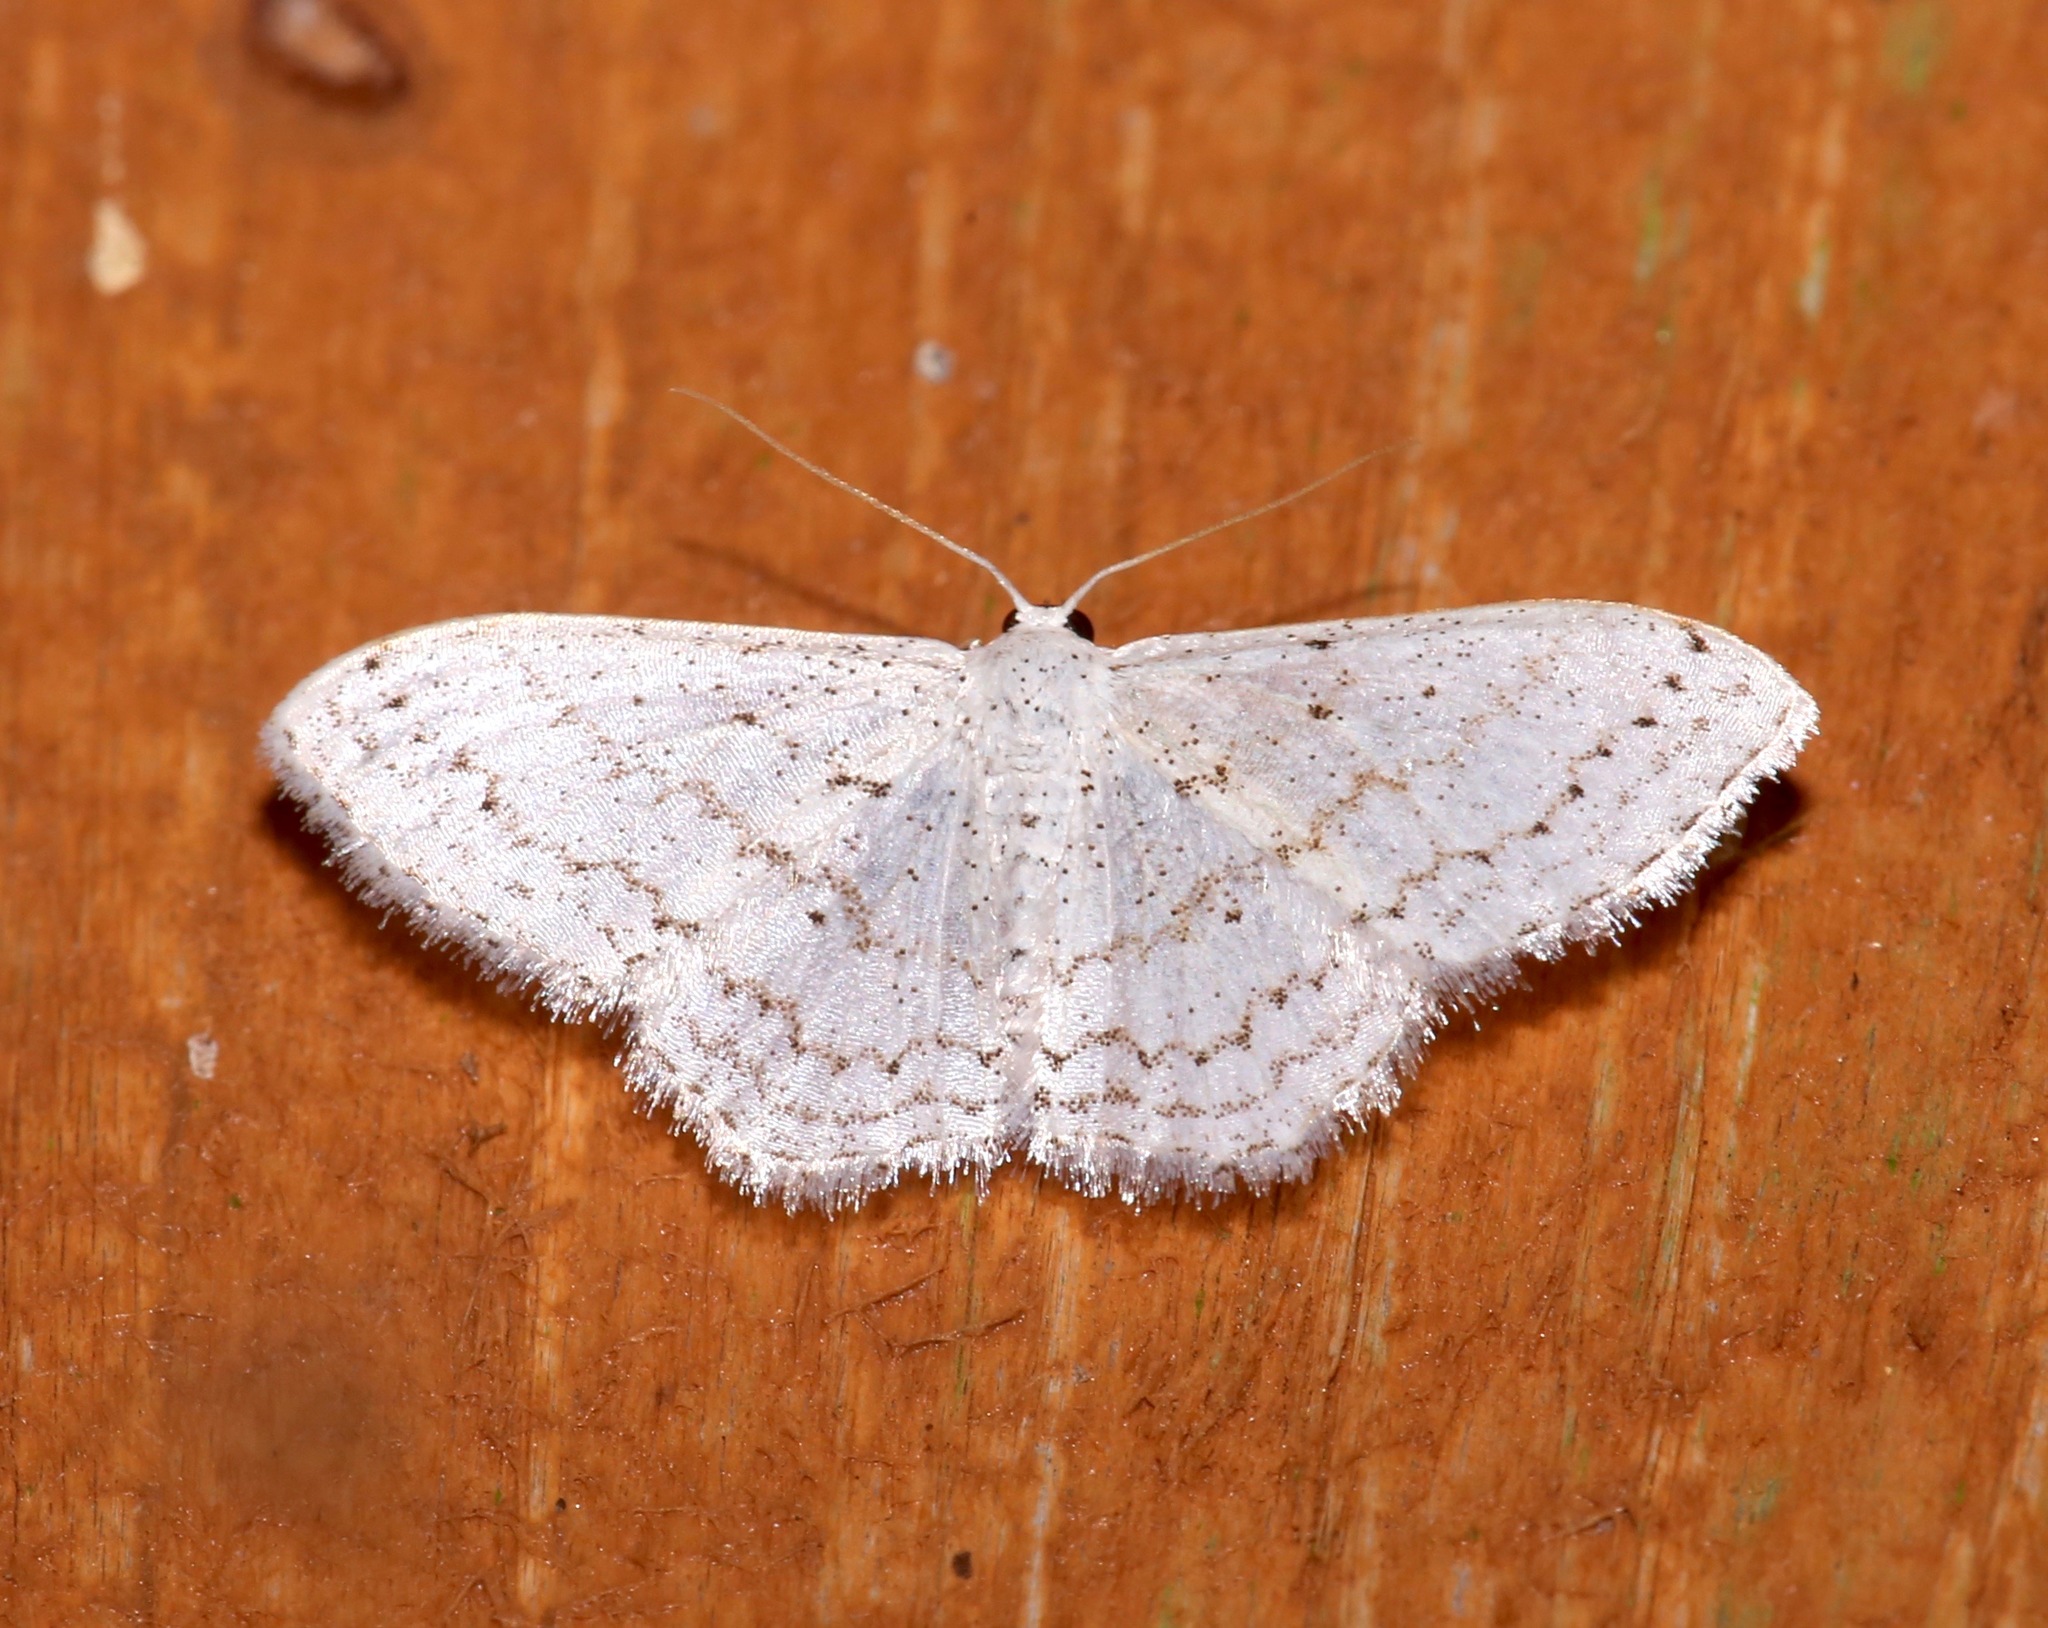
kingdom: Animalia
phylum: Arthropoda
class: Insecta
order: Lepidoptera
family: Geometridae
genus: Idaea
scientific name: Idaea tacturata
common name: Dot-lined wave
